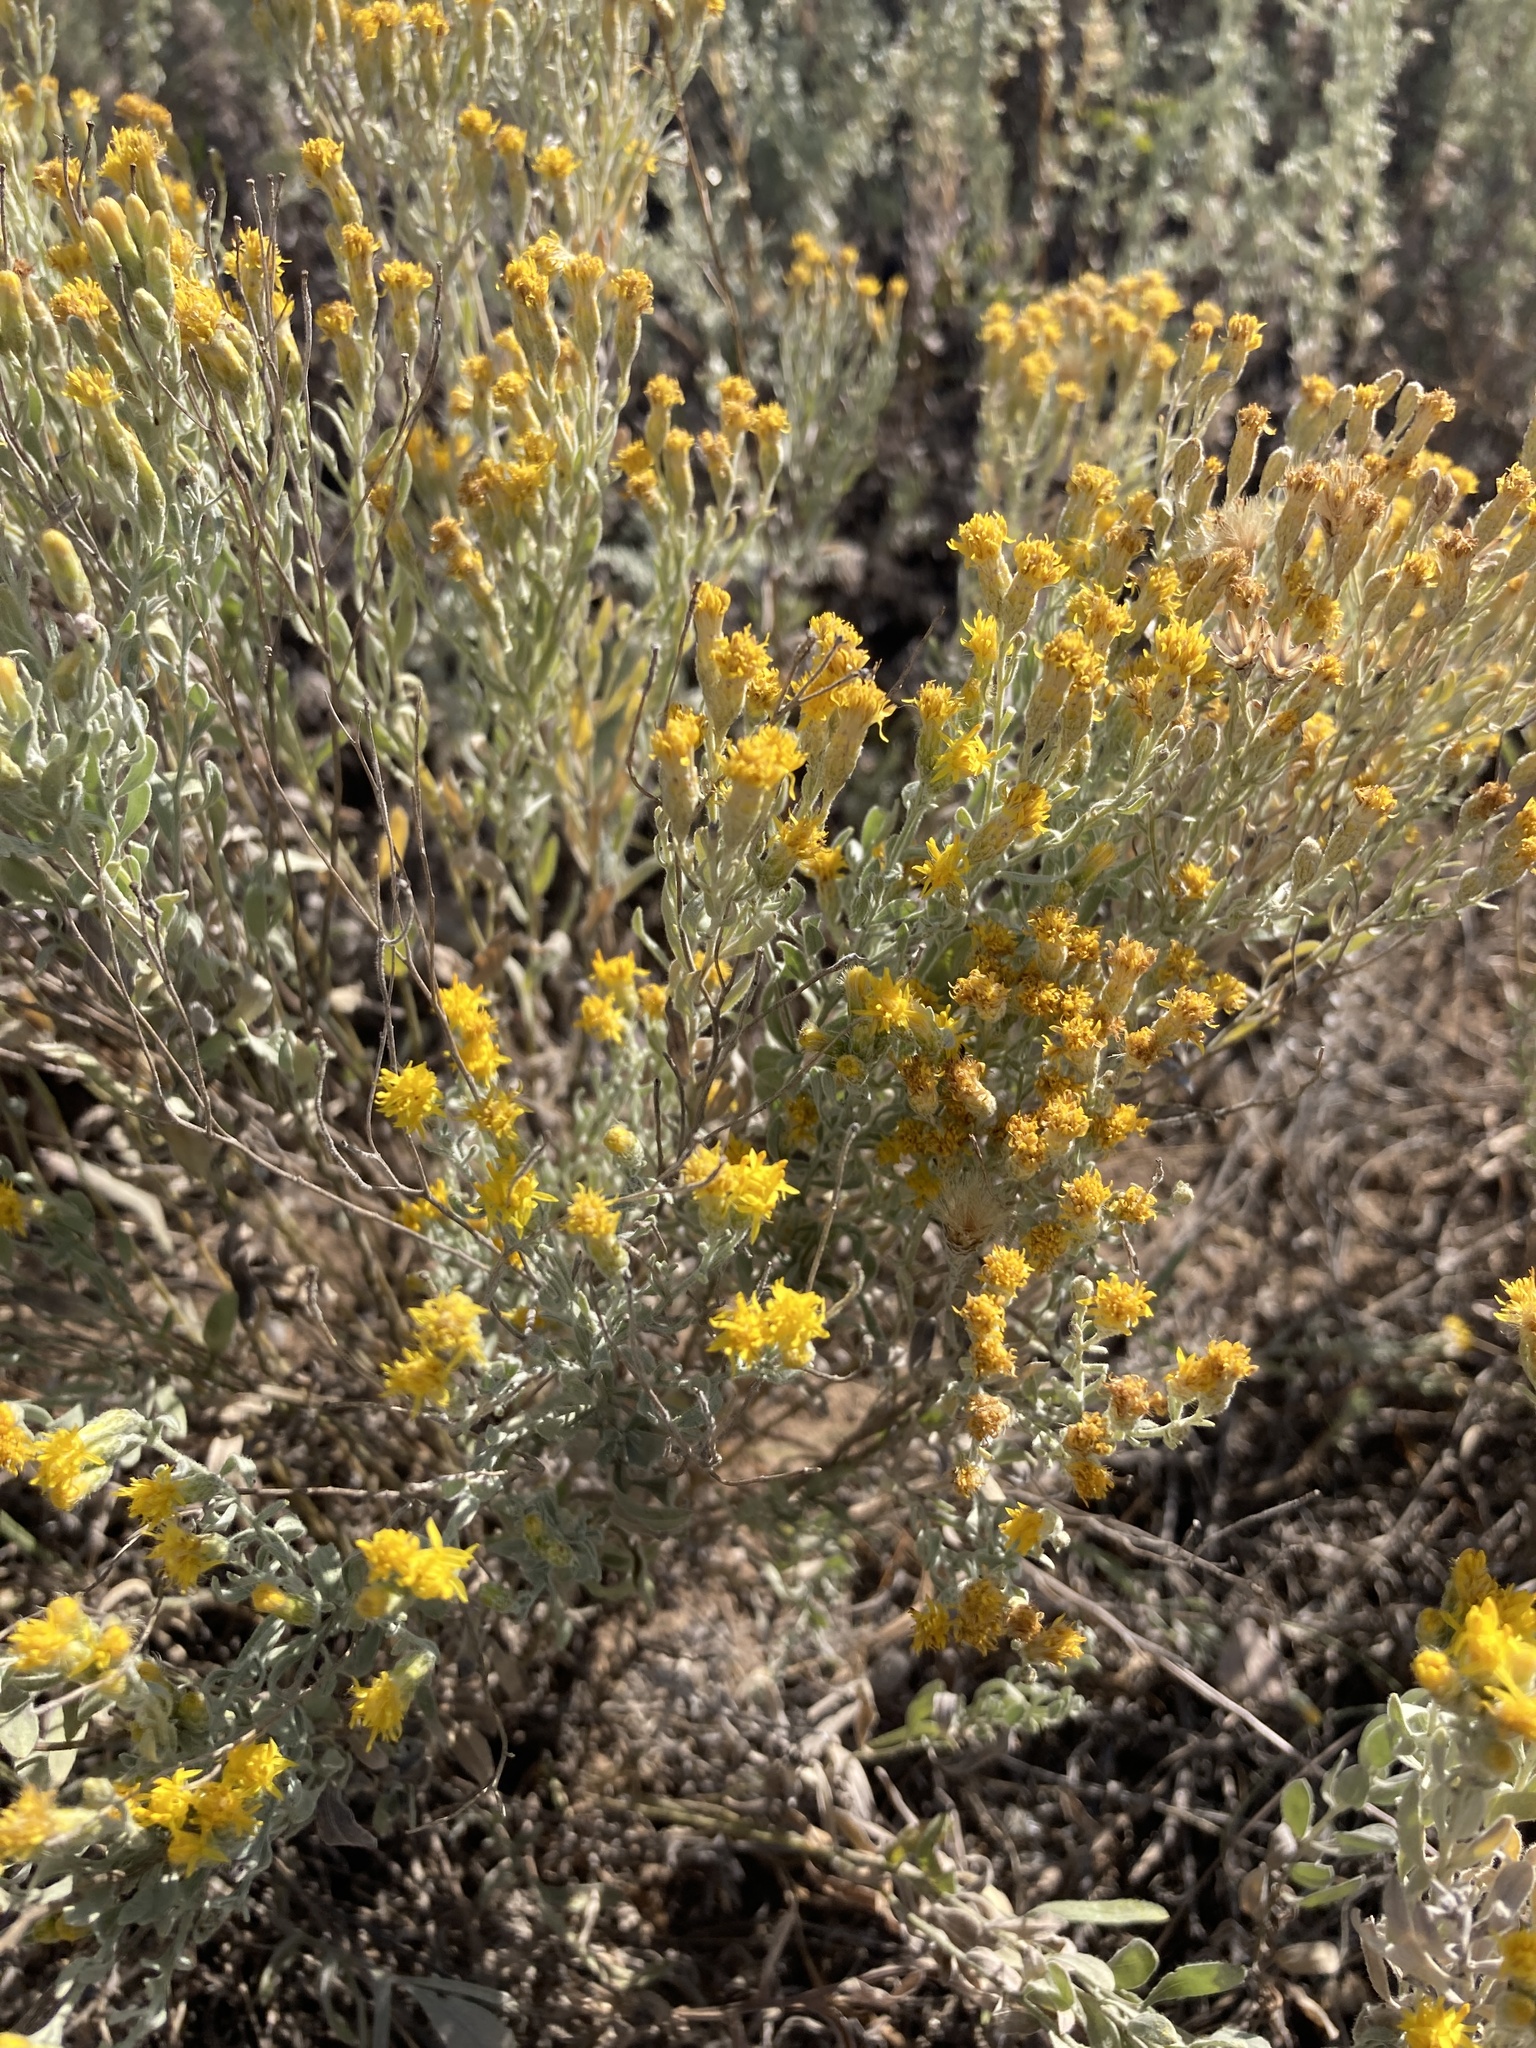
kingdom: Plantae
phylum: Tracheophyta
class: Magnoliopsida
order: Asterales
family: Asteraceae
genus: Galatella
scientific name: Galatella villosa
